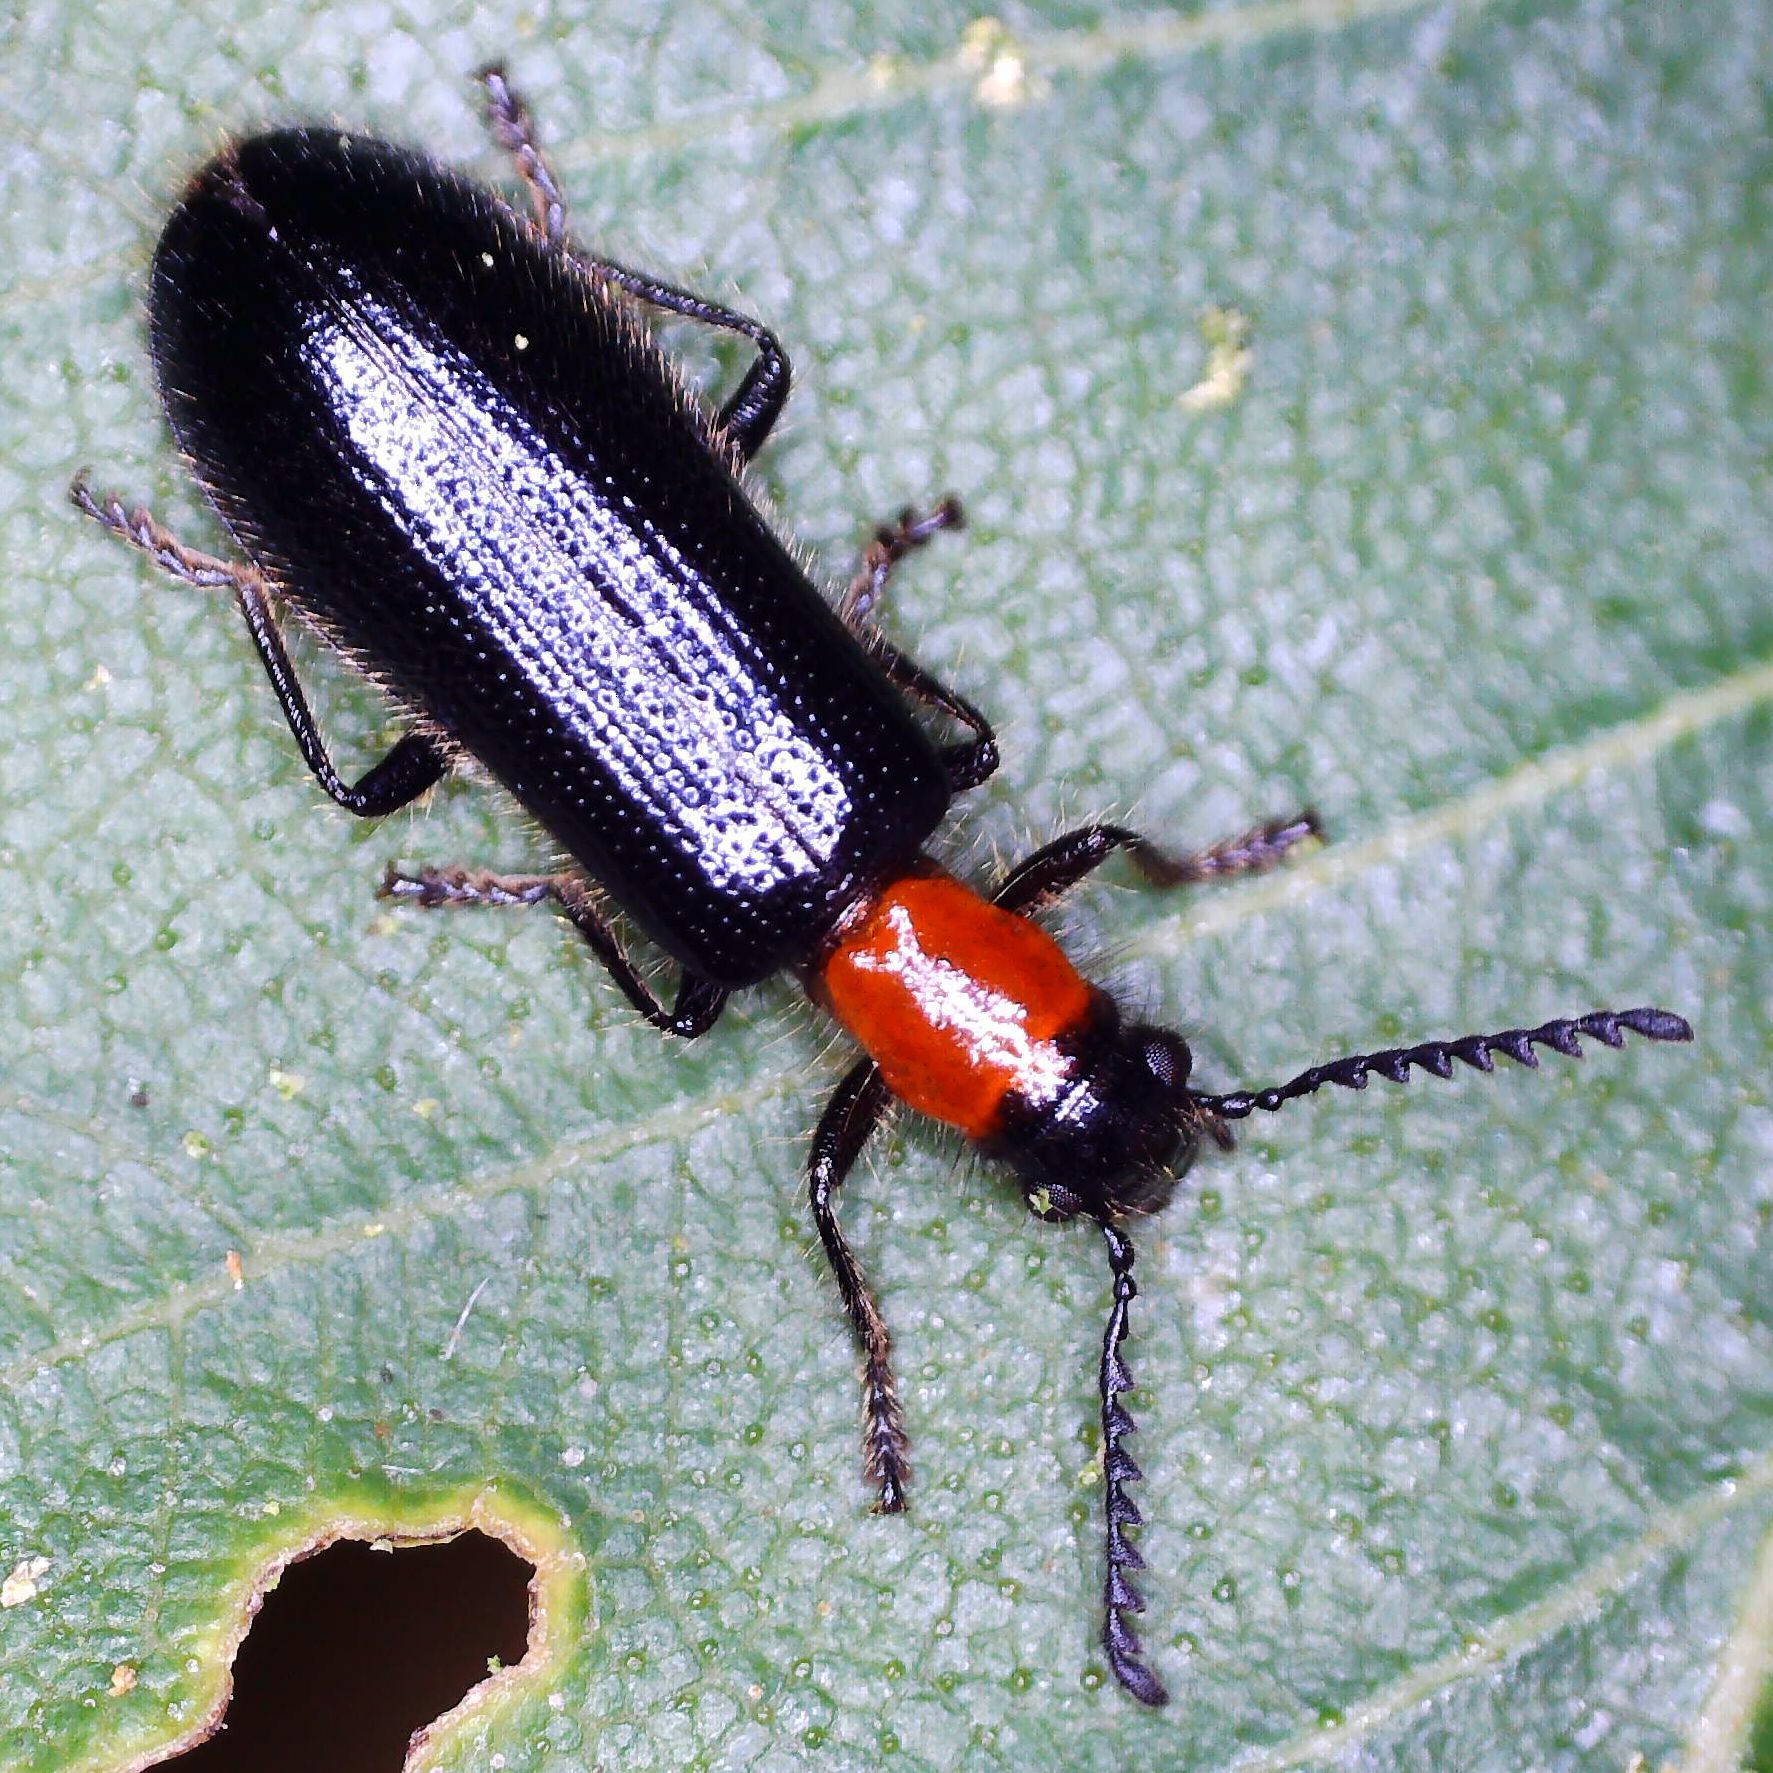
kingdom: Animalia
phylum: Arthropoda
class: Insecta
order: Coleoptera
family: Cleridae
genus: Tillus
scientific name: Tillus elongatus
